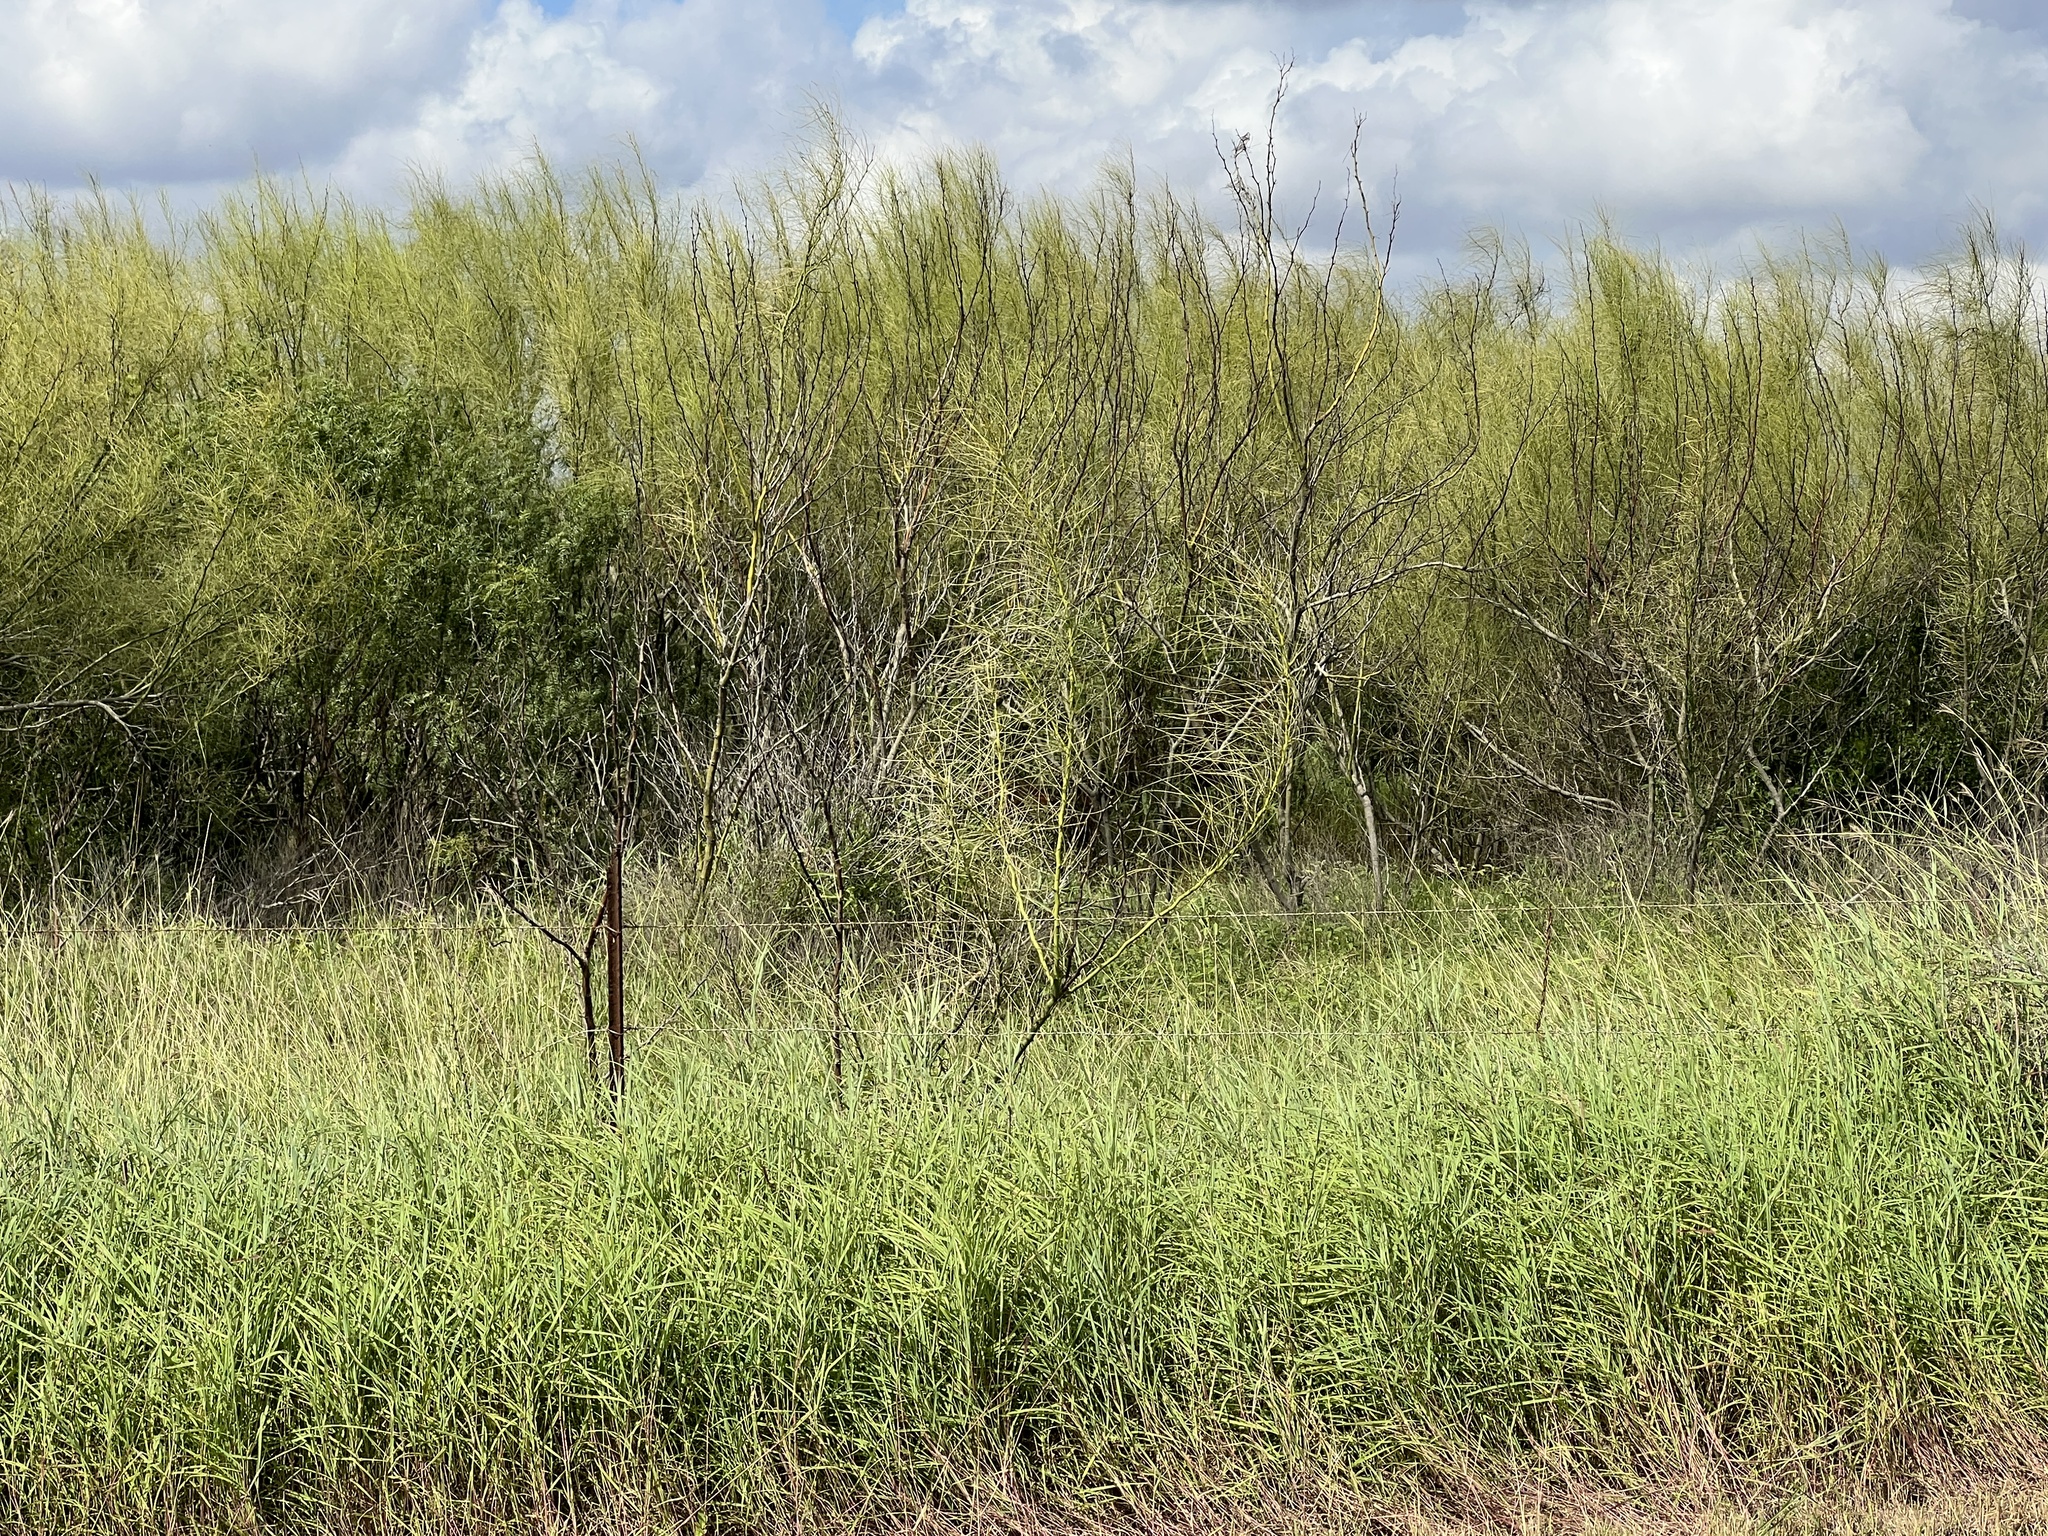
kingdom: Plantae
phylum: Tracheophyta
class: Magnoliopsida
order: Fabales
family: Fabaceae
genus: Parkinsonia
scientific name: Parkinsonia aculeata
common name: Jerusalem thorn
